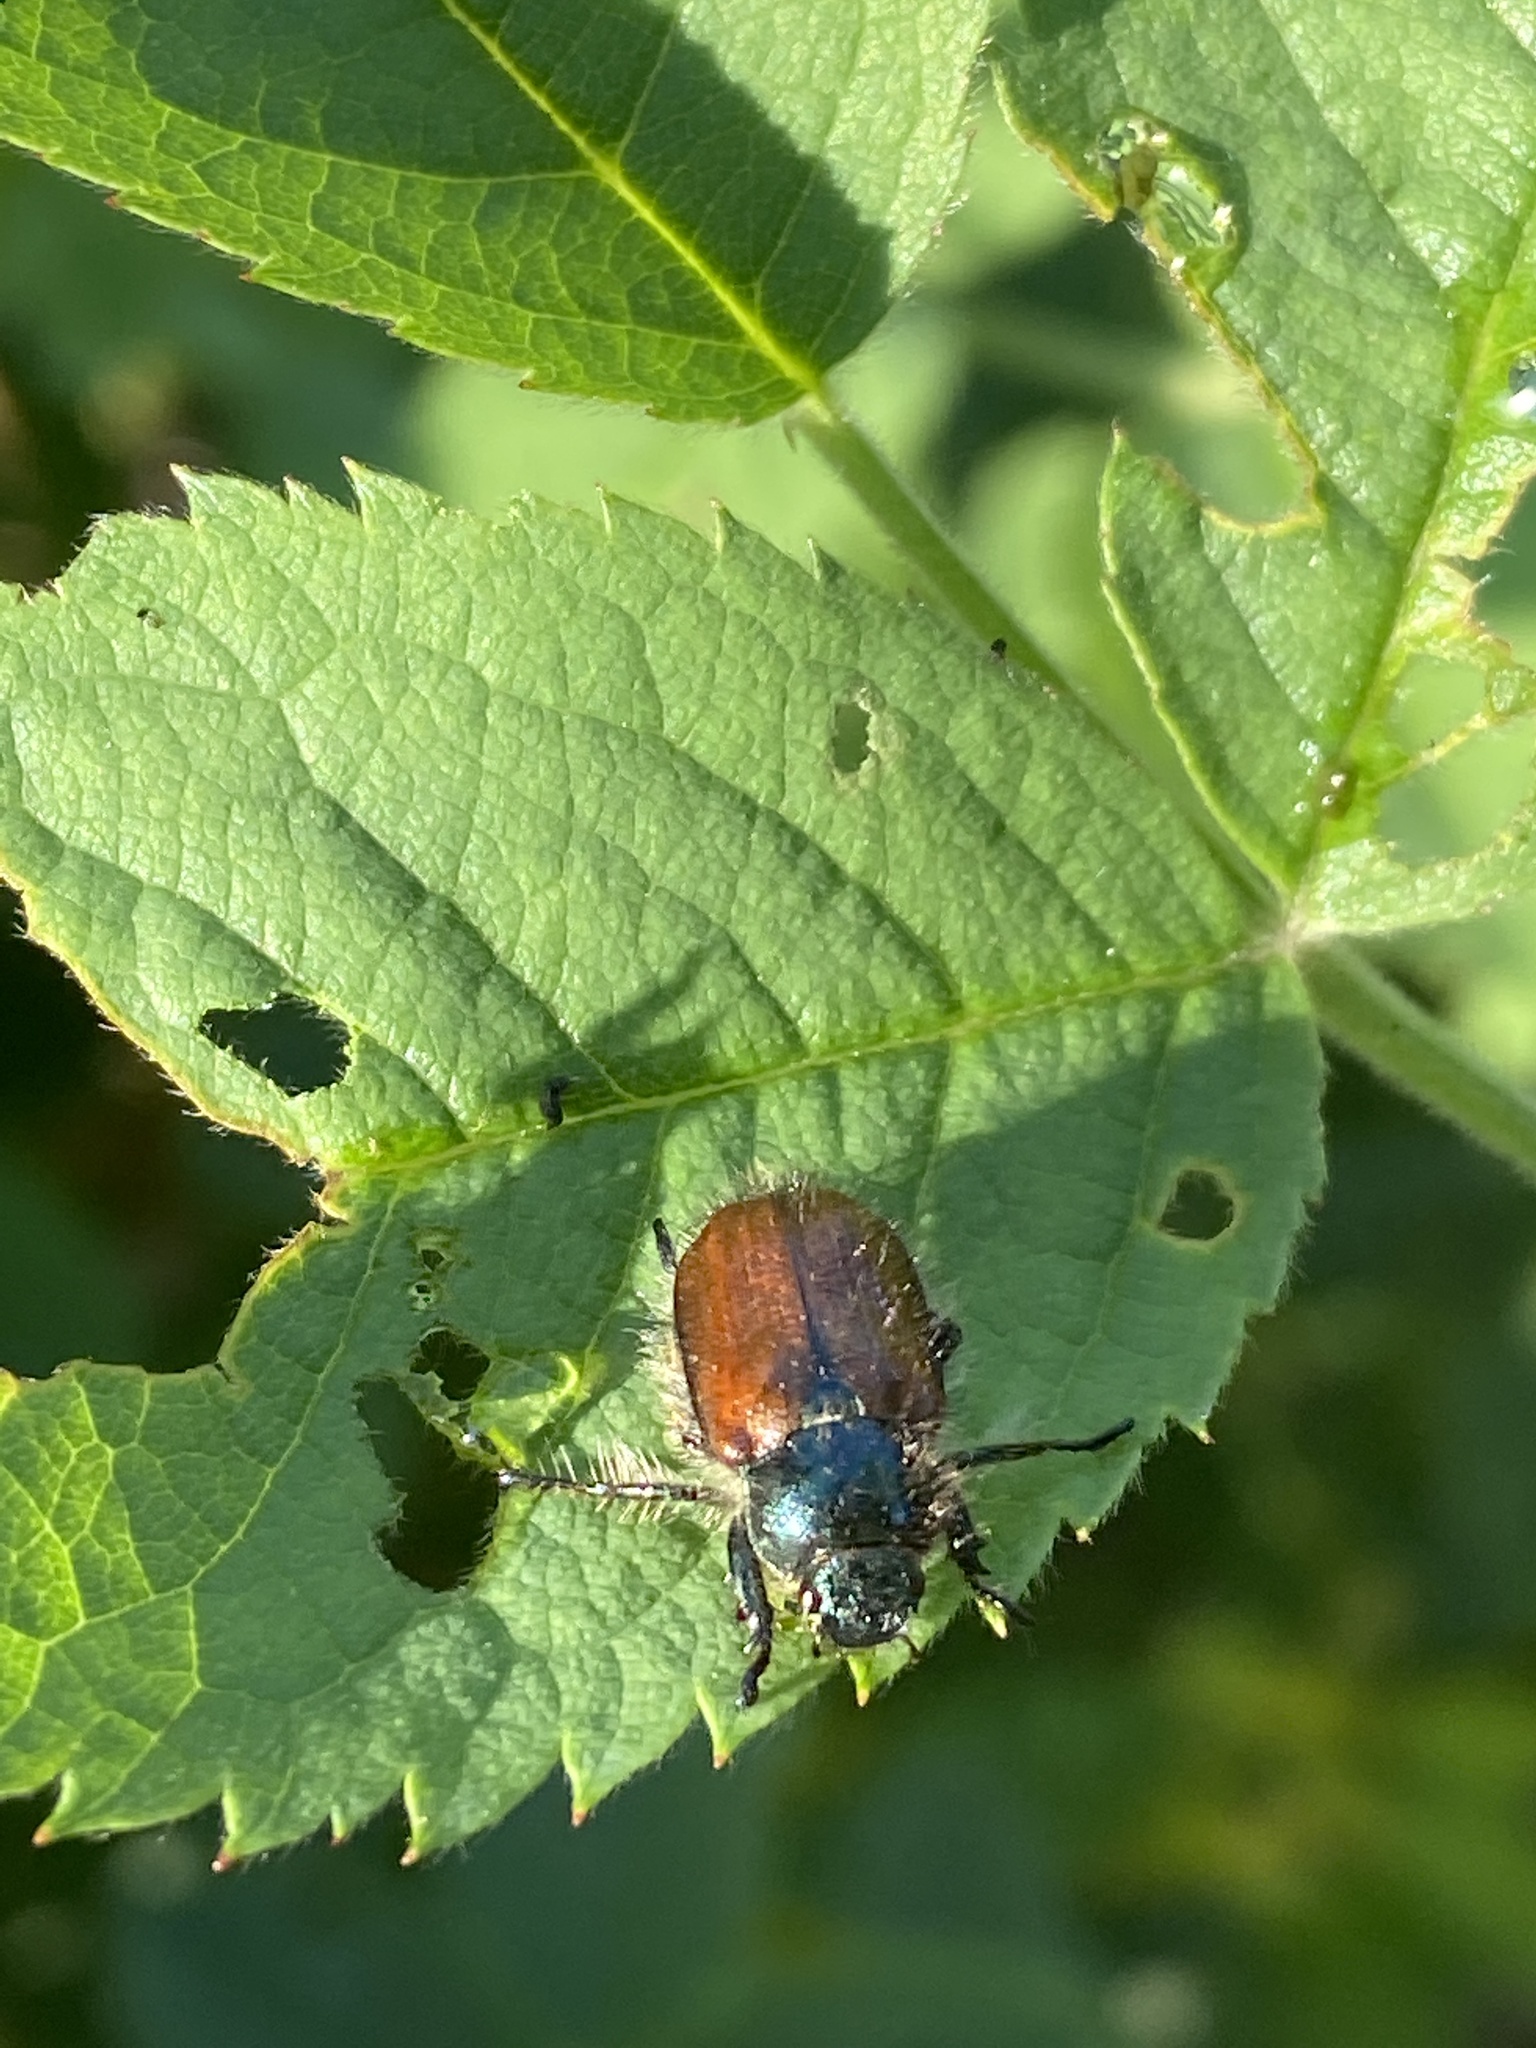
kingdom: Animalia
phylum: Arthropoda
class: Insecta
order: Coleoptera
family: Scarabaeidae
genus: Phyllopertha
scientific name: Phyllopertha horticola
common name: Garden chafer
